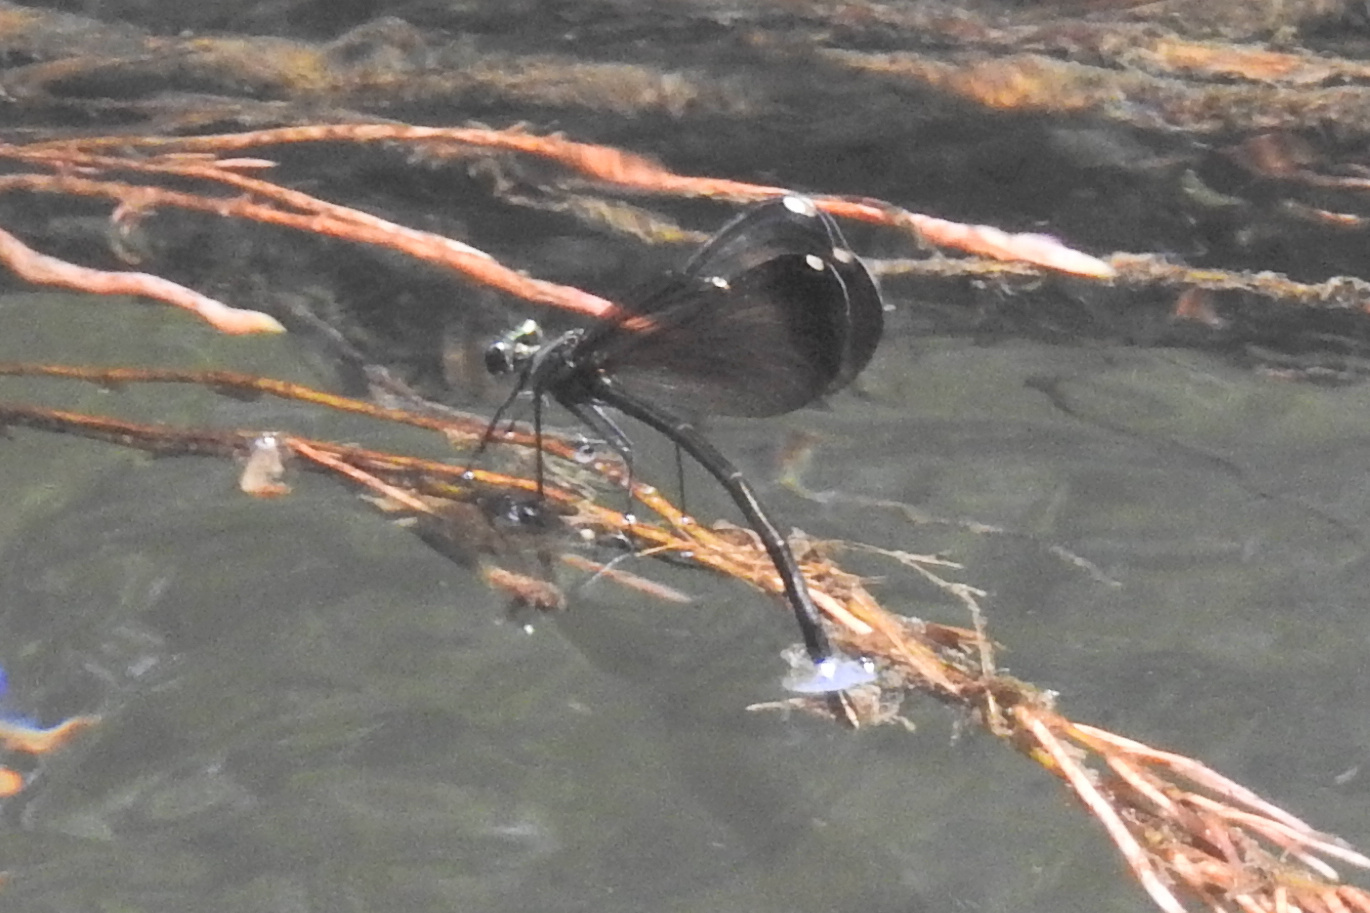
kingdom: Animalia
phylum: Arthropoda
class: Insecta
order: Odonata
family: Calopterygidae
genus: Calopteryx
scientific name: Calopteryx maculata
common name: Ebony jewelwing
